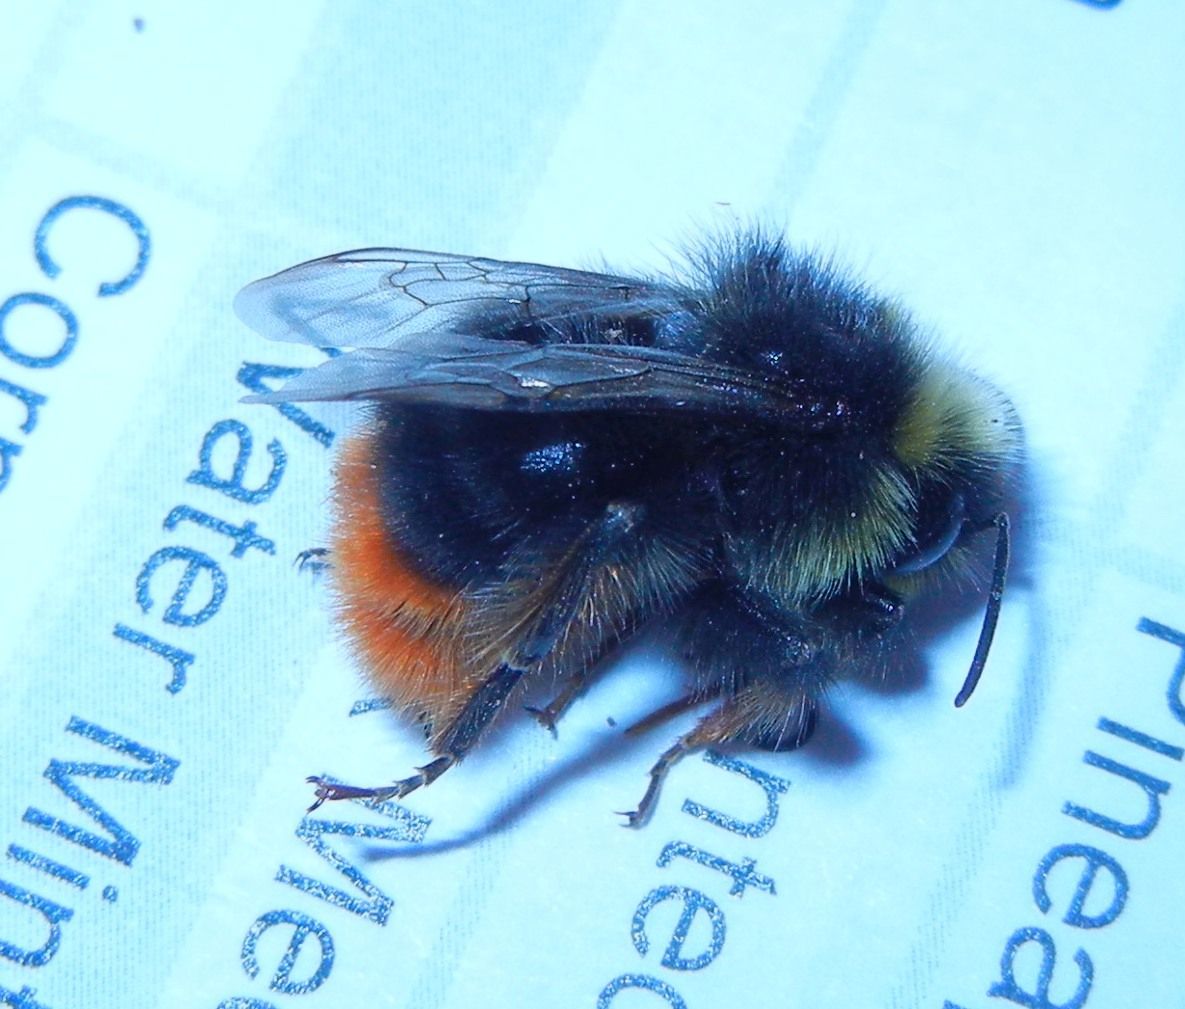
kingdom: Animalia
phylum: Arthropoda
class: Insecta
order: Hymenoptera
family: Apidae
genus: Bombus
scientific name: Bombus lapidarius
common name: Large red-tailed humble-bee
